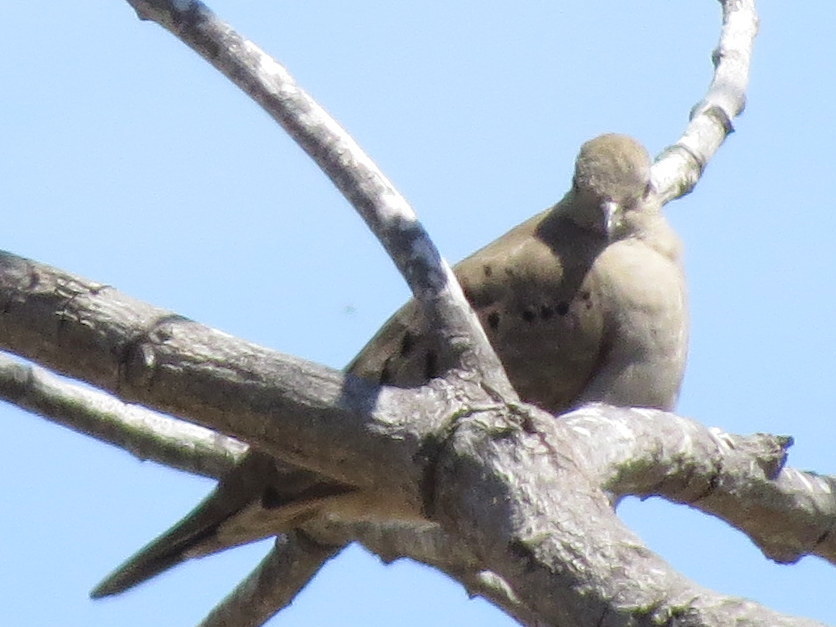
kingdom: Animalia
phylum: Chordata
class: Aves
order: Columbiformes
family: Columbidae
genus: Columbina
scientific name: Columbina talpacoti
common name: Ruddy ground dove
